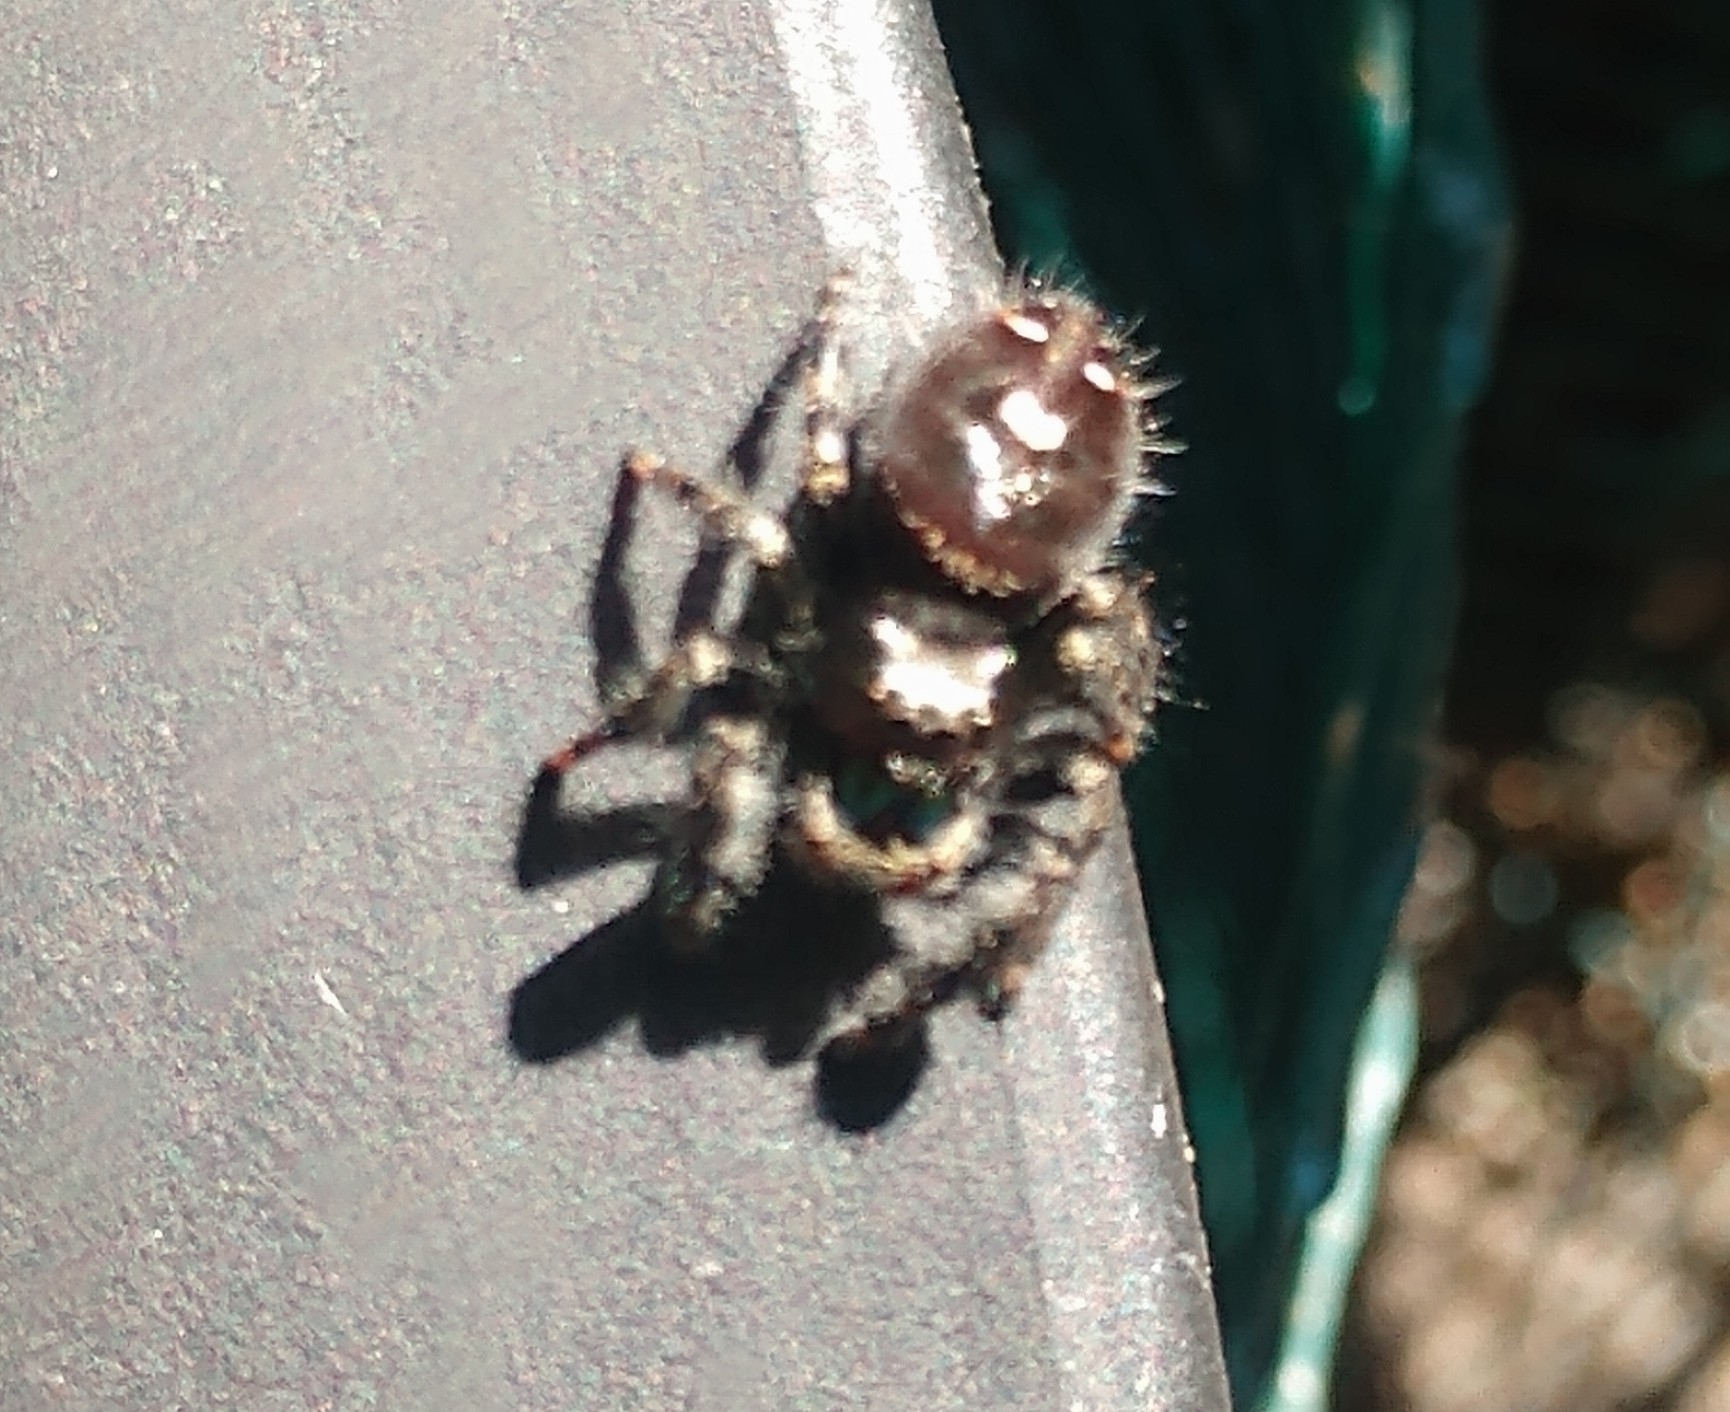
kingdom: Animalia
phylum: Arthropoda
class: Arachnida
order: Araneae
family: Salticidae
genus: Phidippus
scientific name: Phidippus audax
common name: Bold jumper
